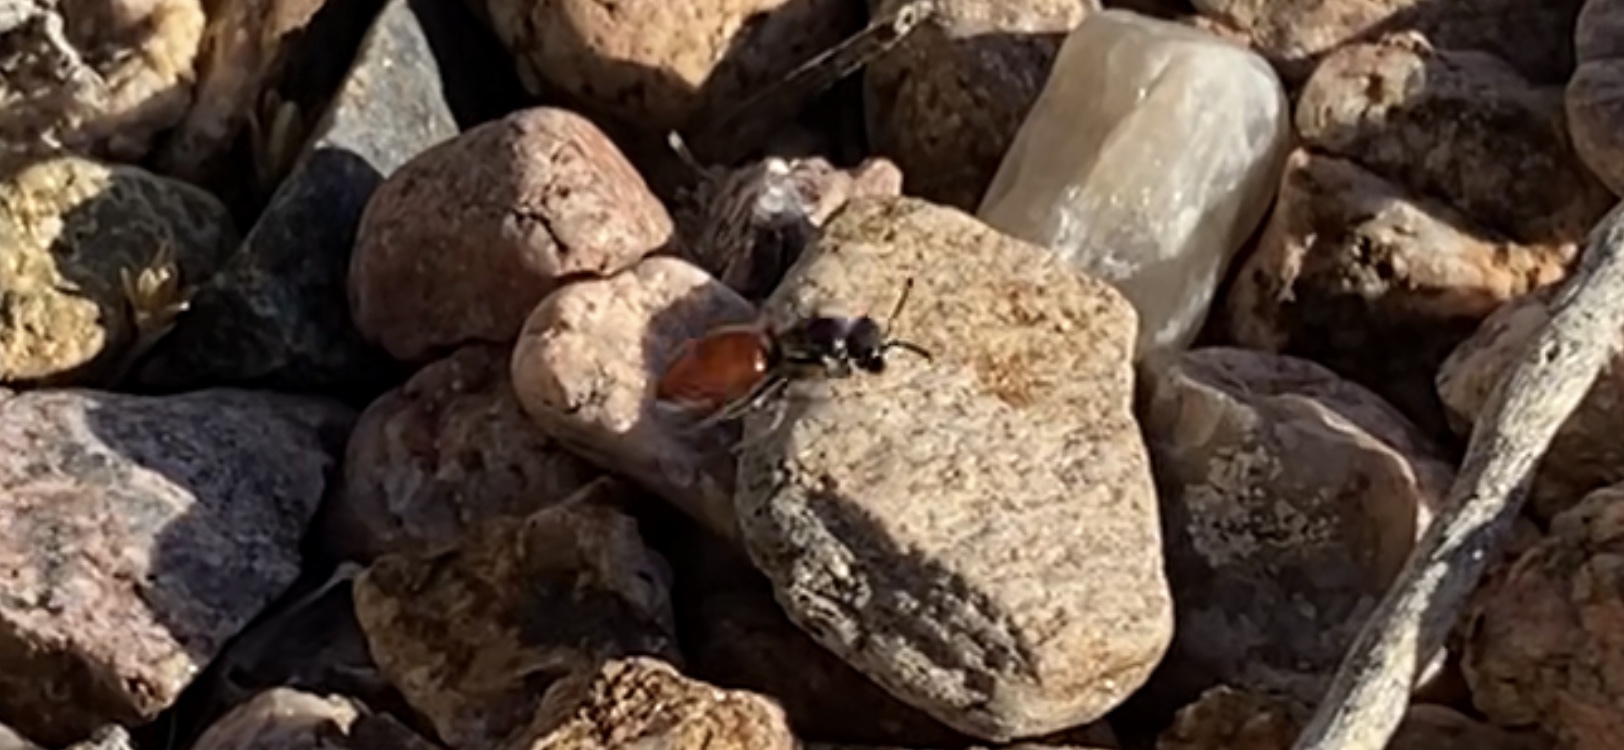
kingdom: Animalia
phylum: Arthropoda
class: Insecta
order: Hymenoptera
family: Halictidae
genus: Sphecodes
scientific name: Sphecodes
